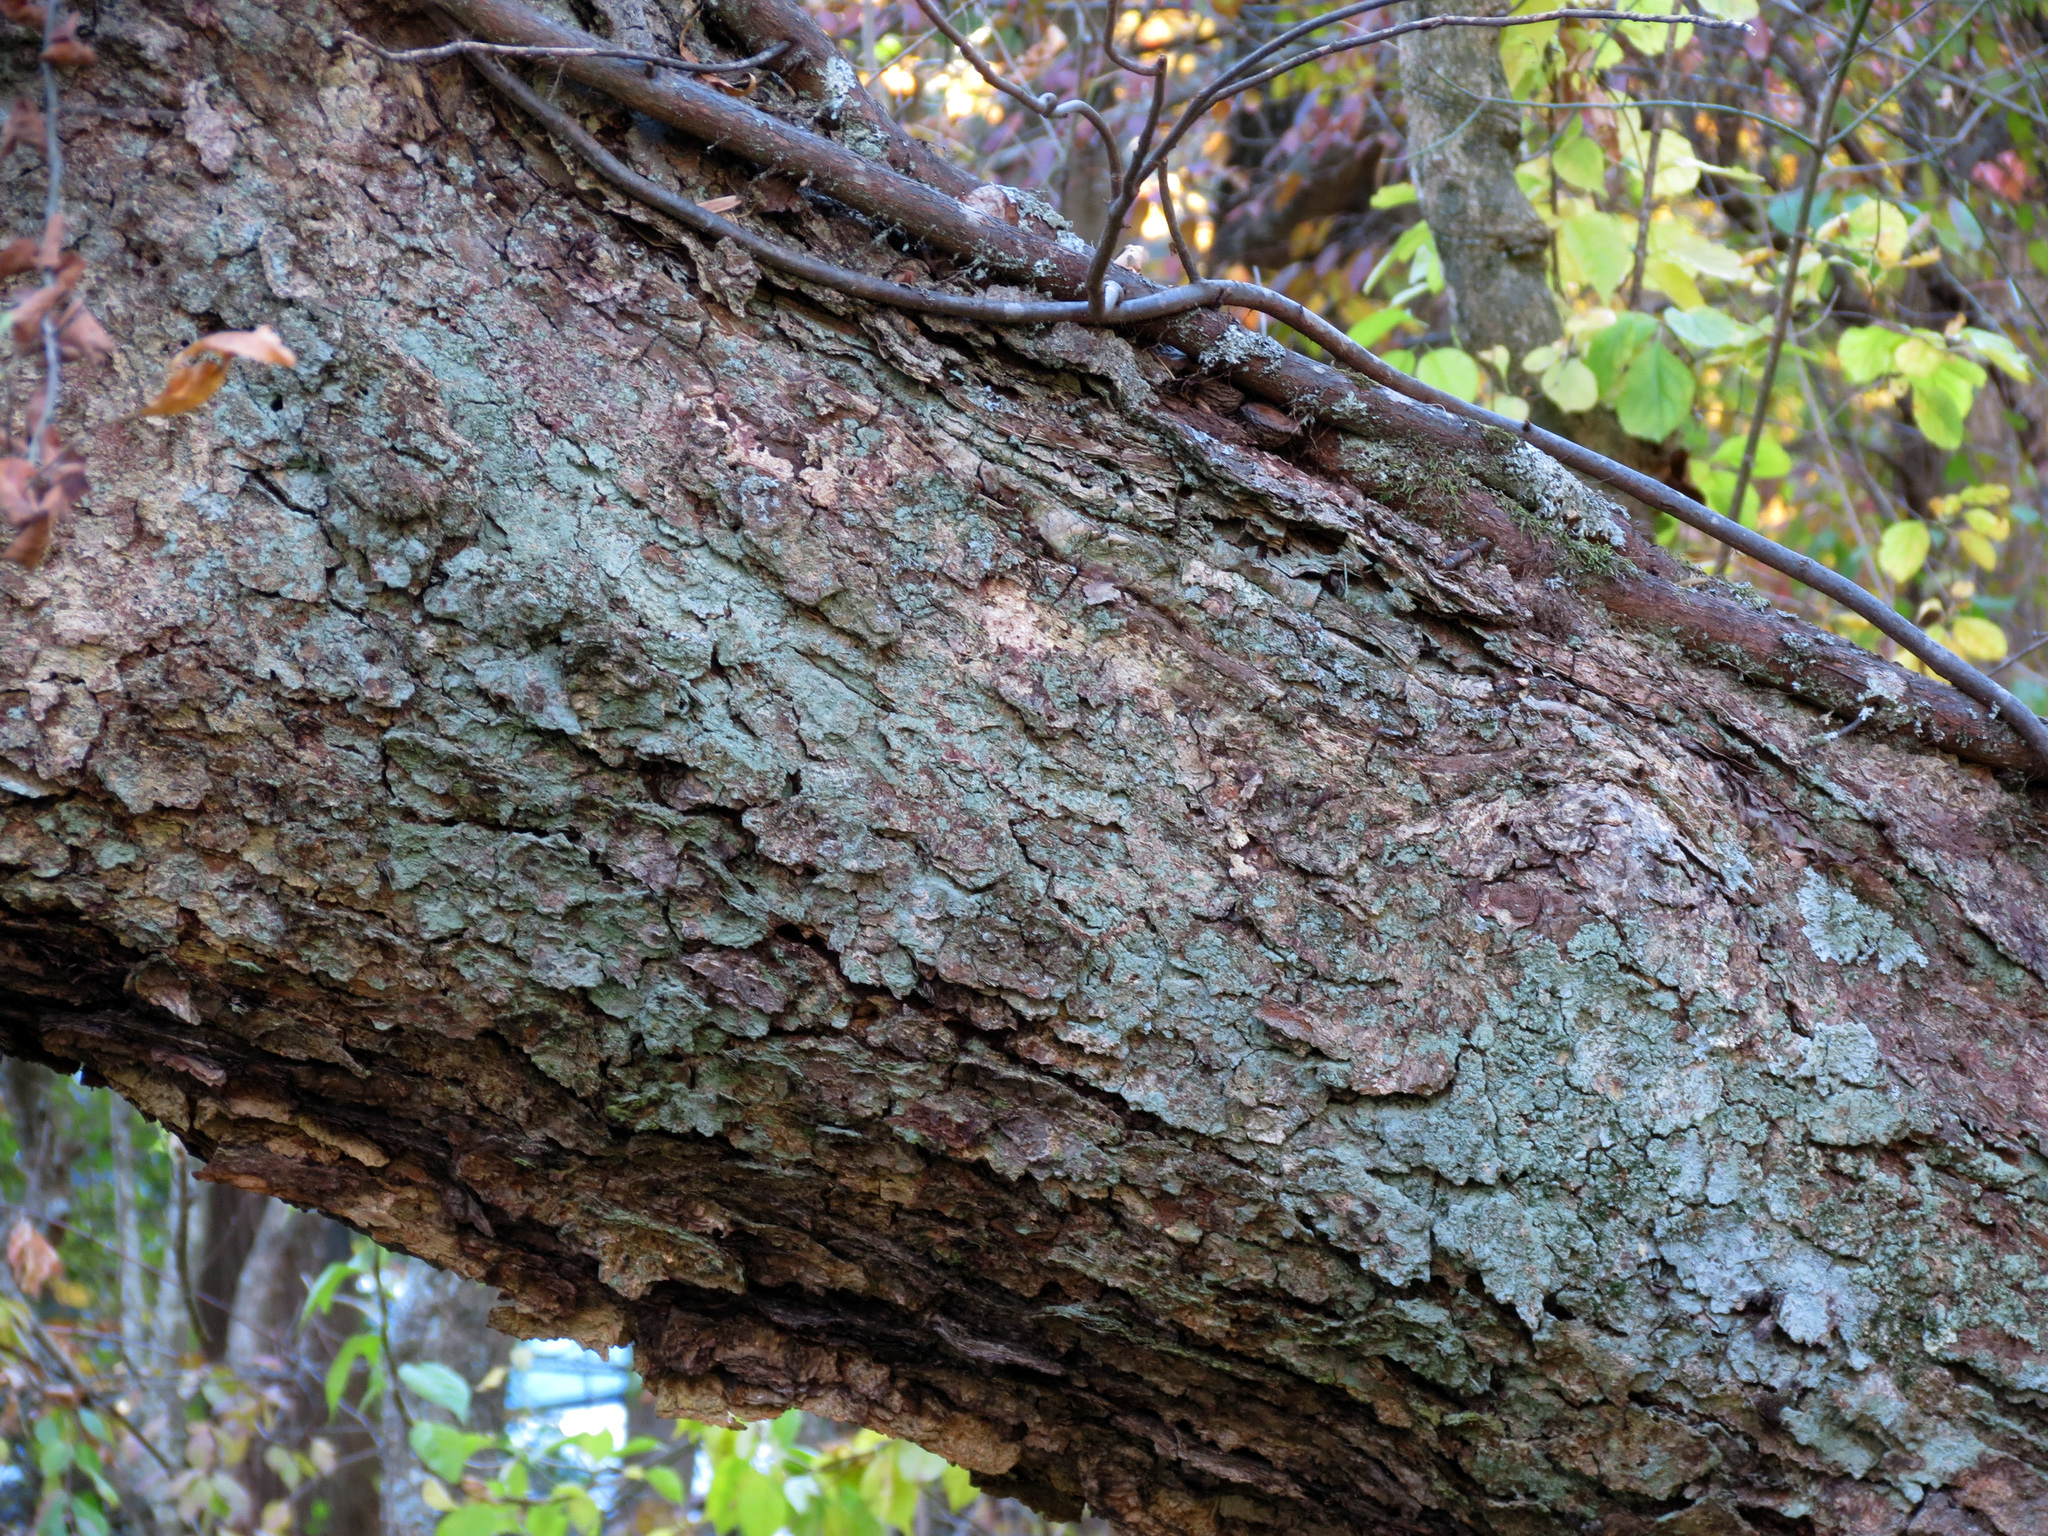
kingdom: Plantae
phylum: Tracheophyta
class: Magnoliopsida
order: Fagales
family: Betulaceae
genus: Betula
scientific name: Betula nigra
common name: Black birch
